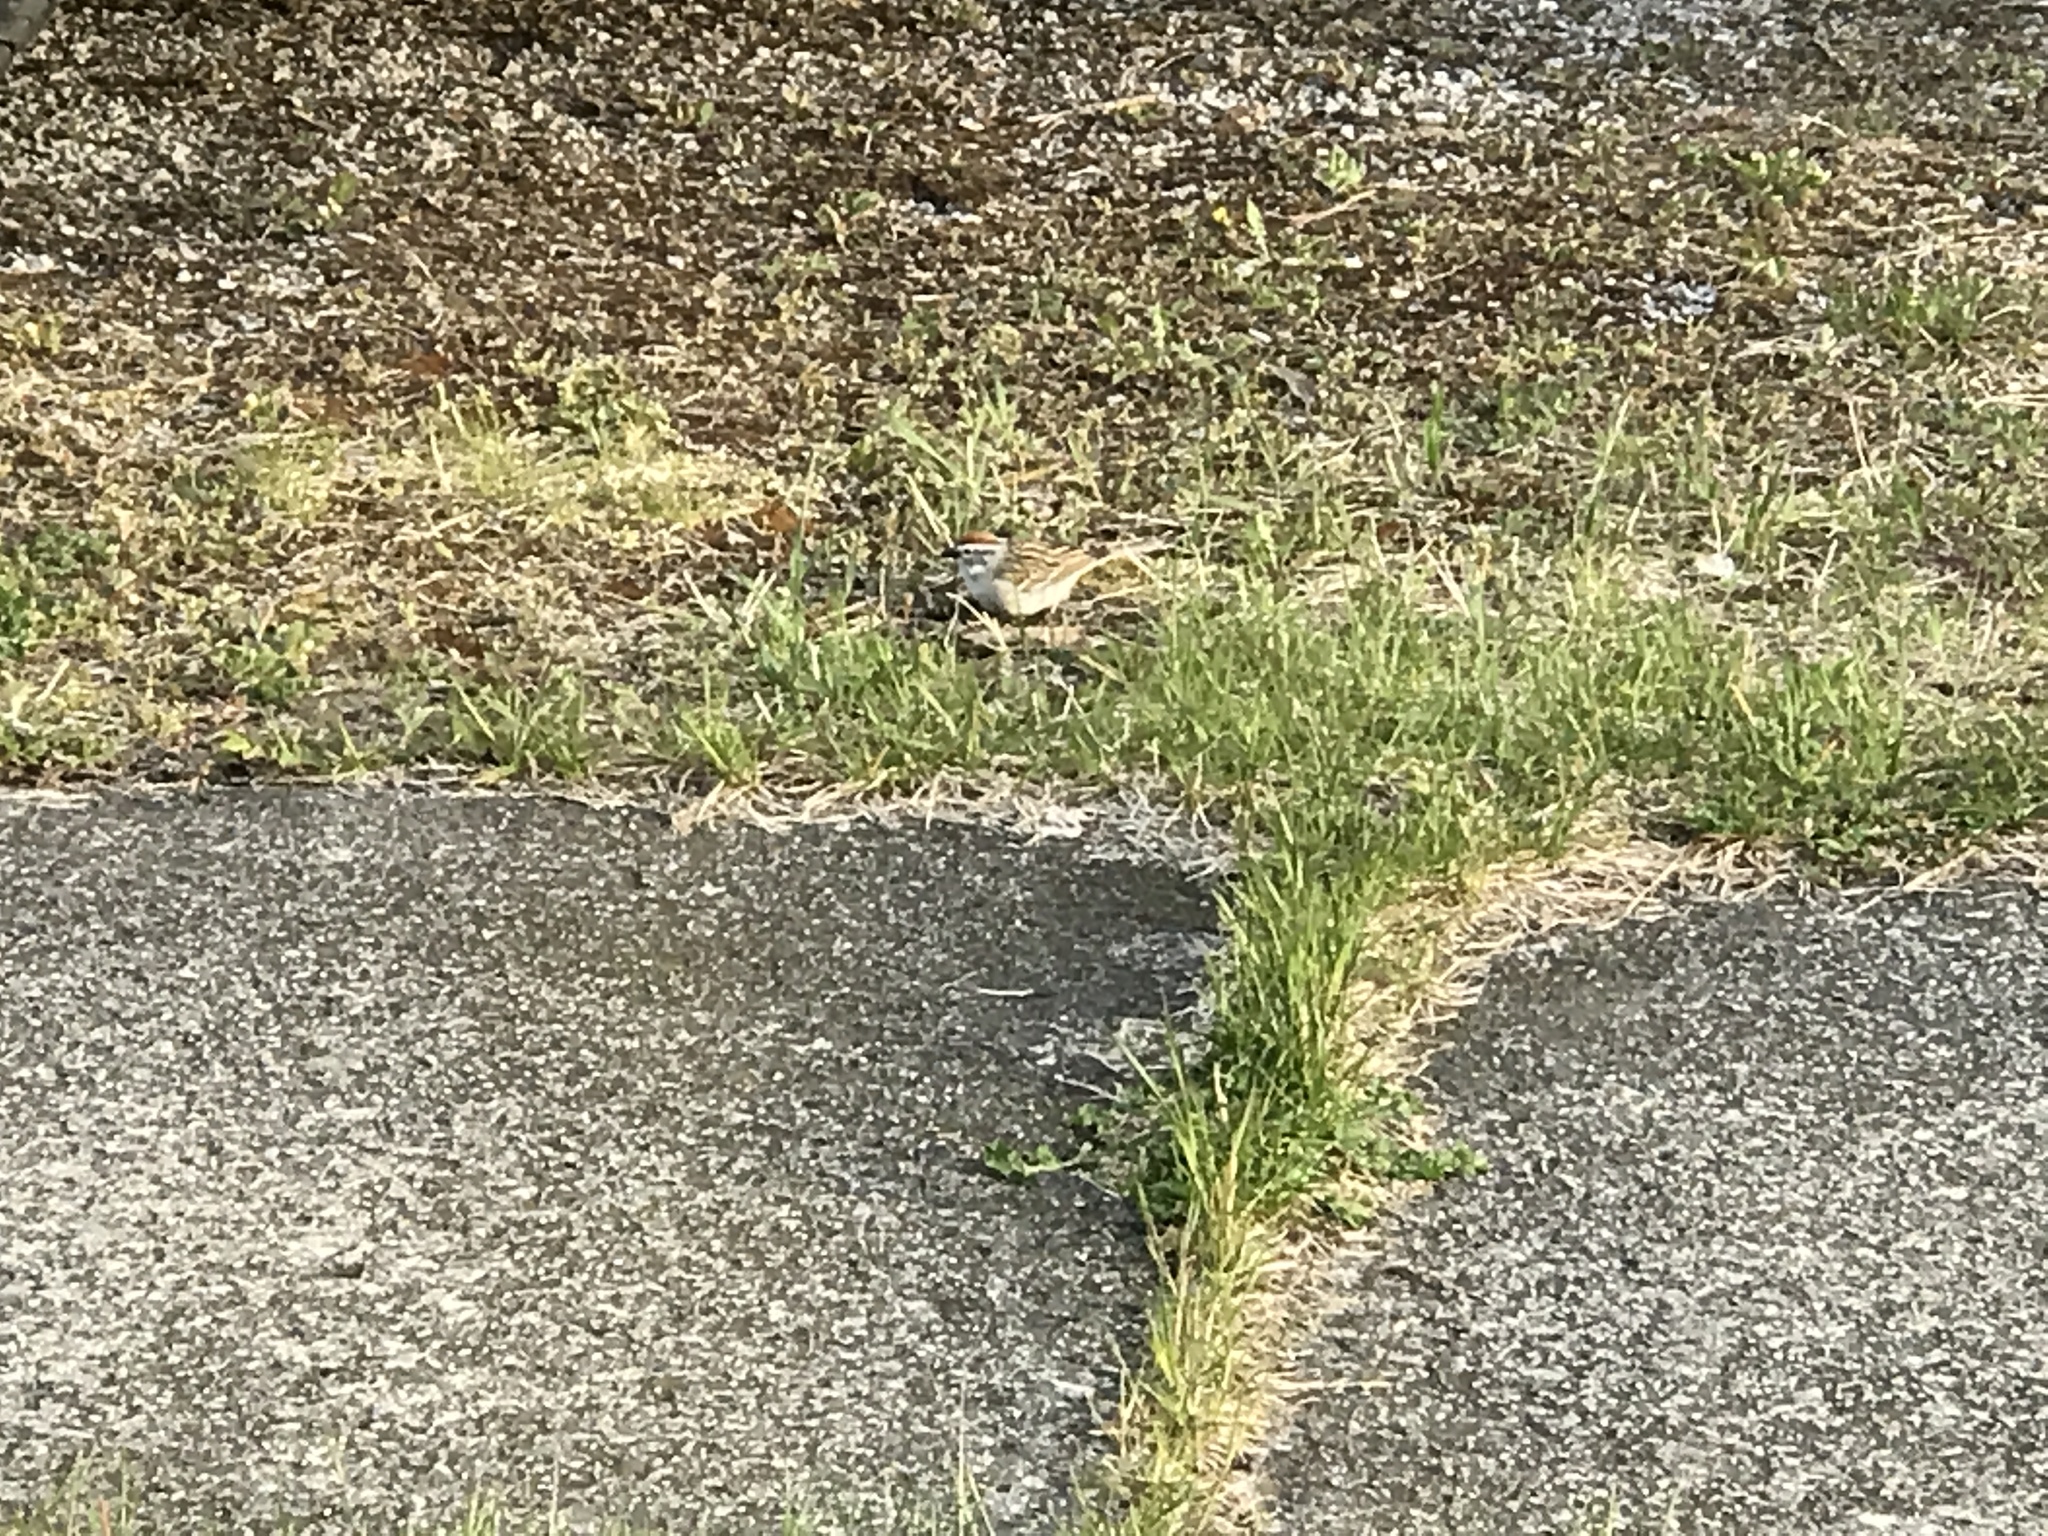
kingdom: Animalia
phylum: Chordata
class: Aves
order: Passeriformes
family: Passerellidae
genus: Spizella
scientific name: Spizella passerina
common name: Chipping sparrow
